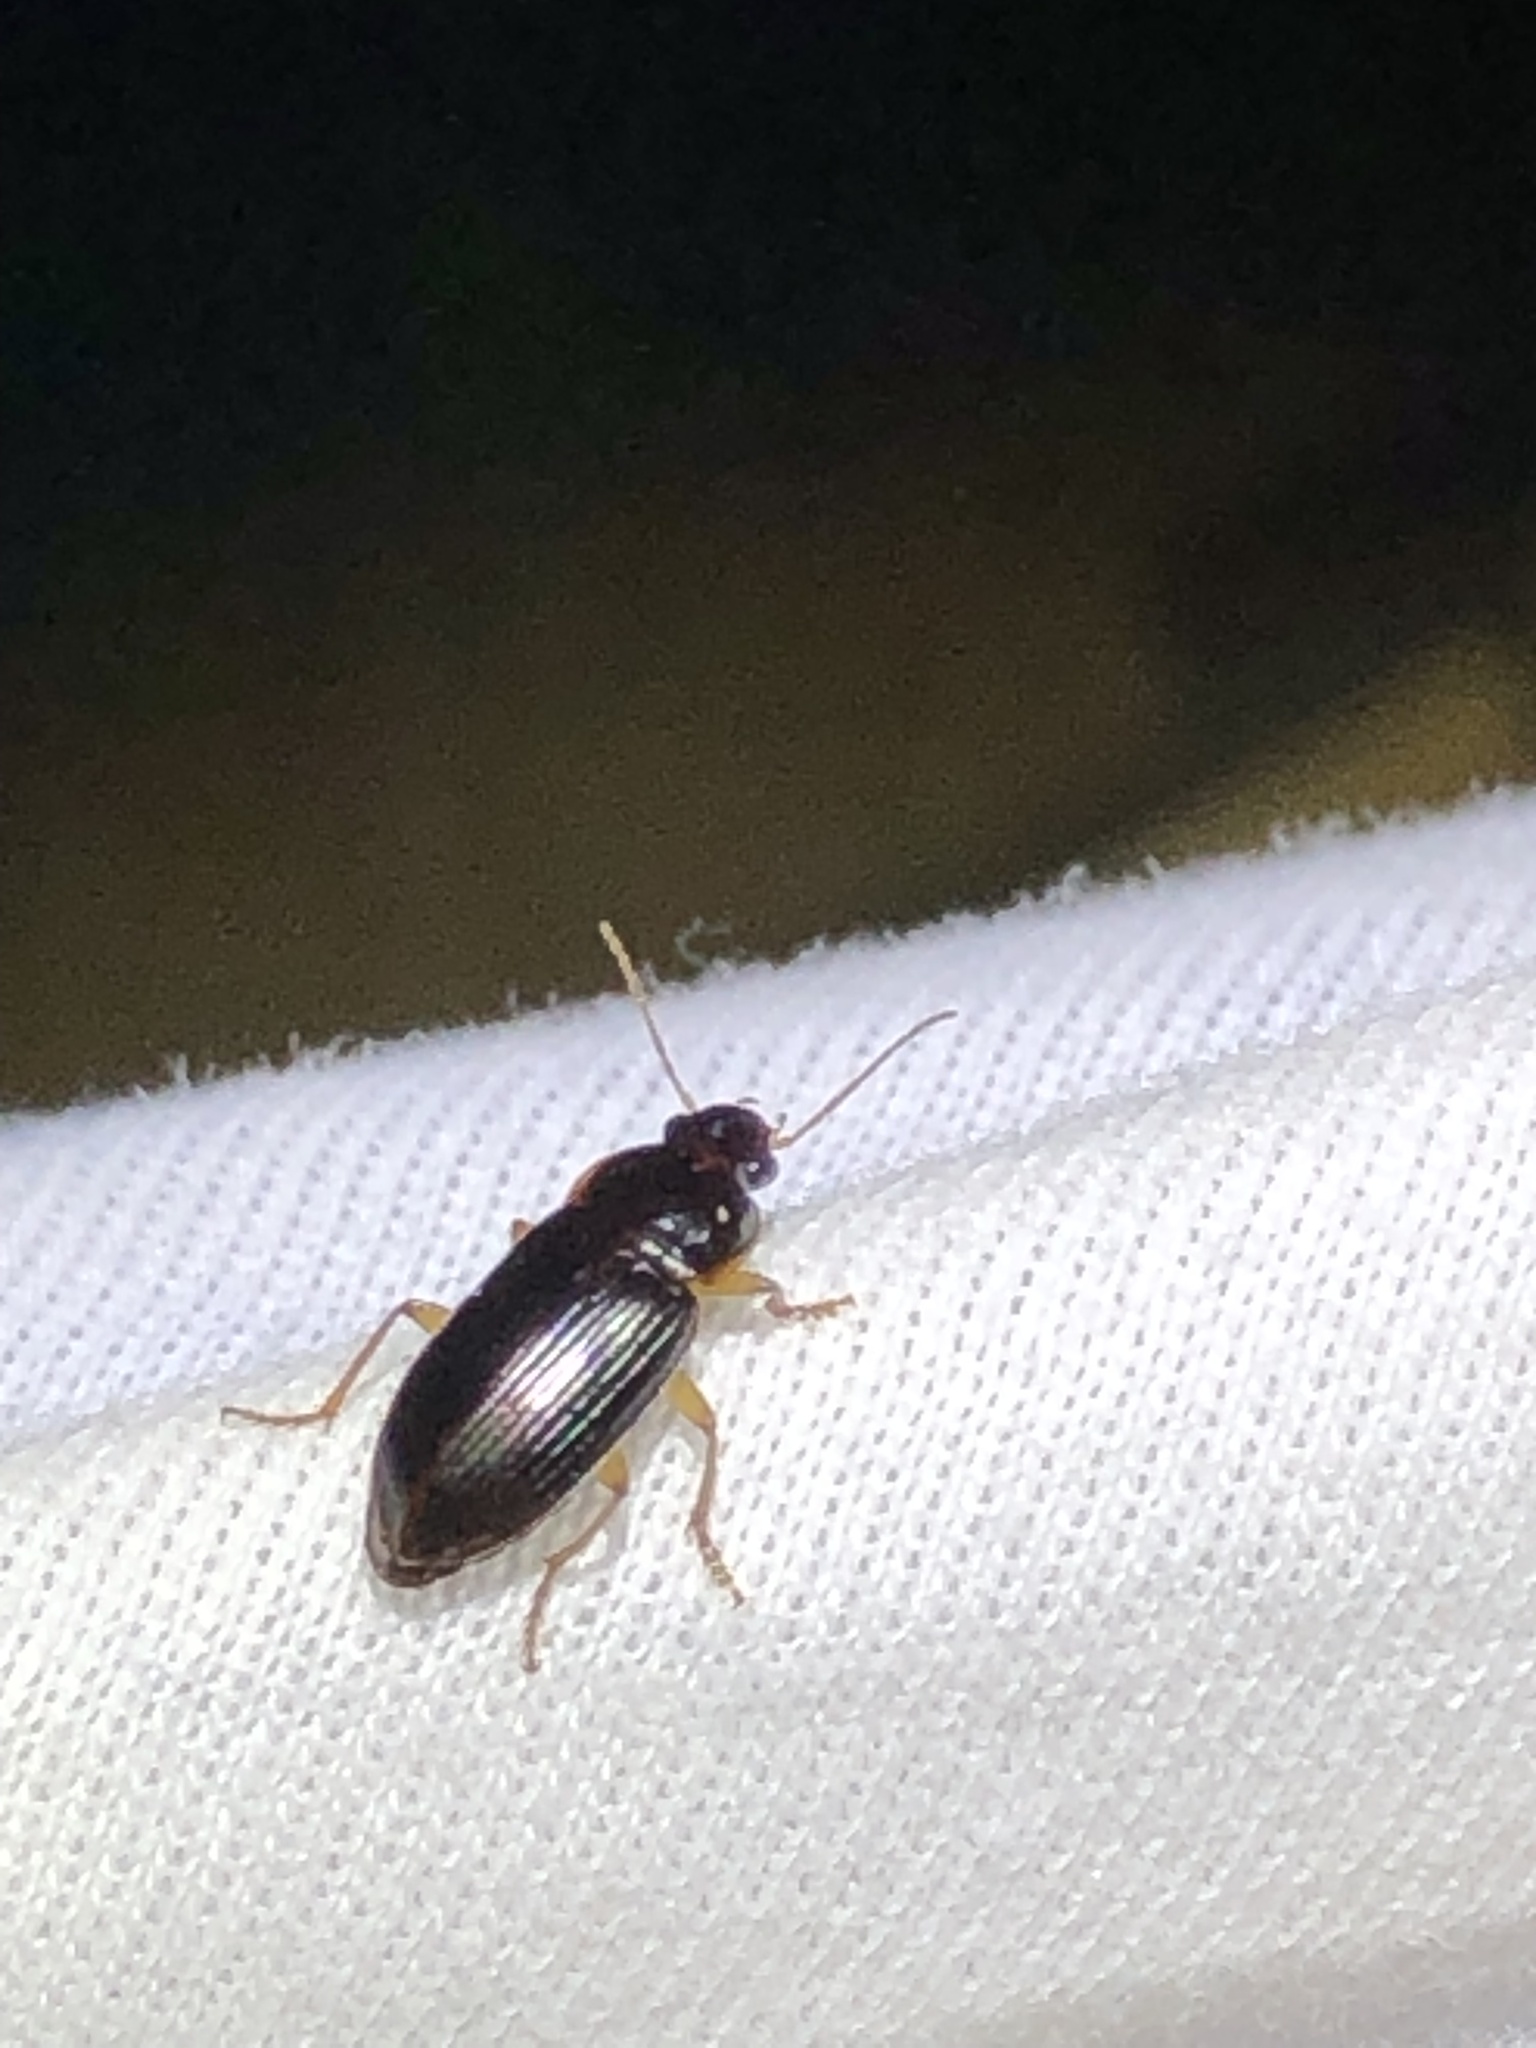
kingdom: Animalia
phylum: Arthropoda
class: Insecta
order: Coleoptera
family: Carabidae
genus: Notiobia
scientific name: Notiobia terminata
